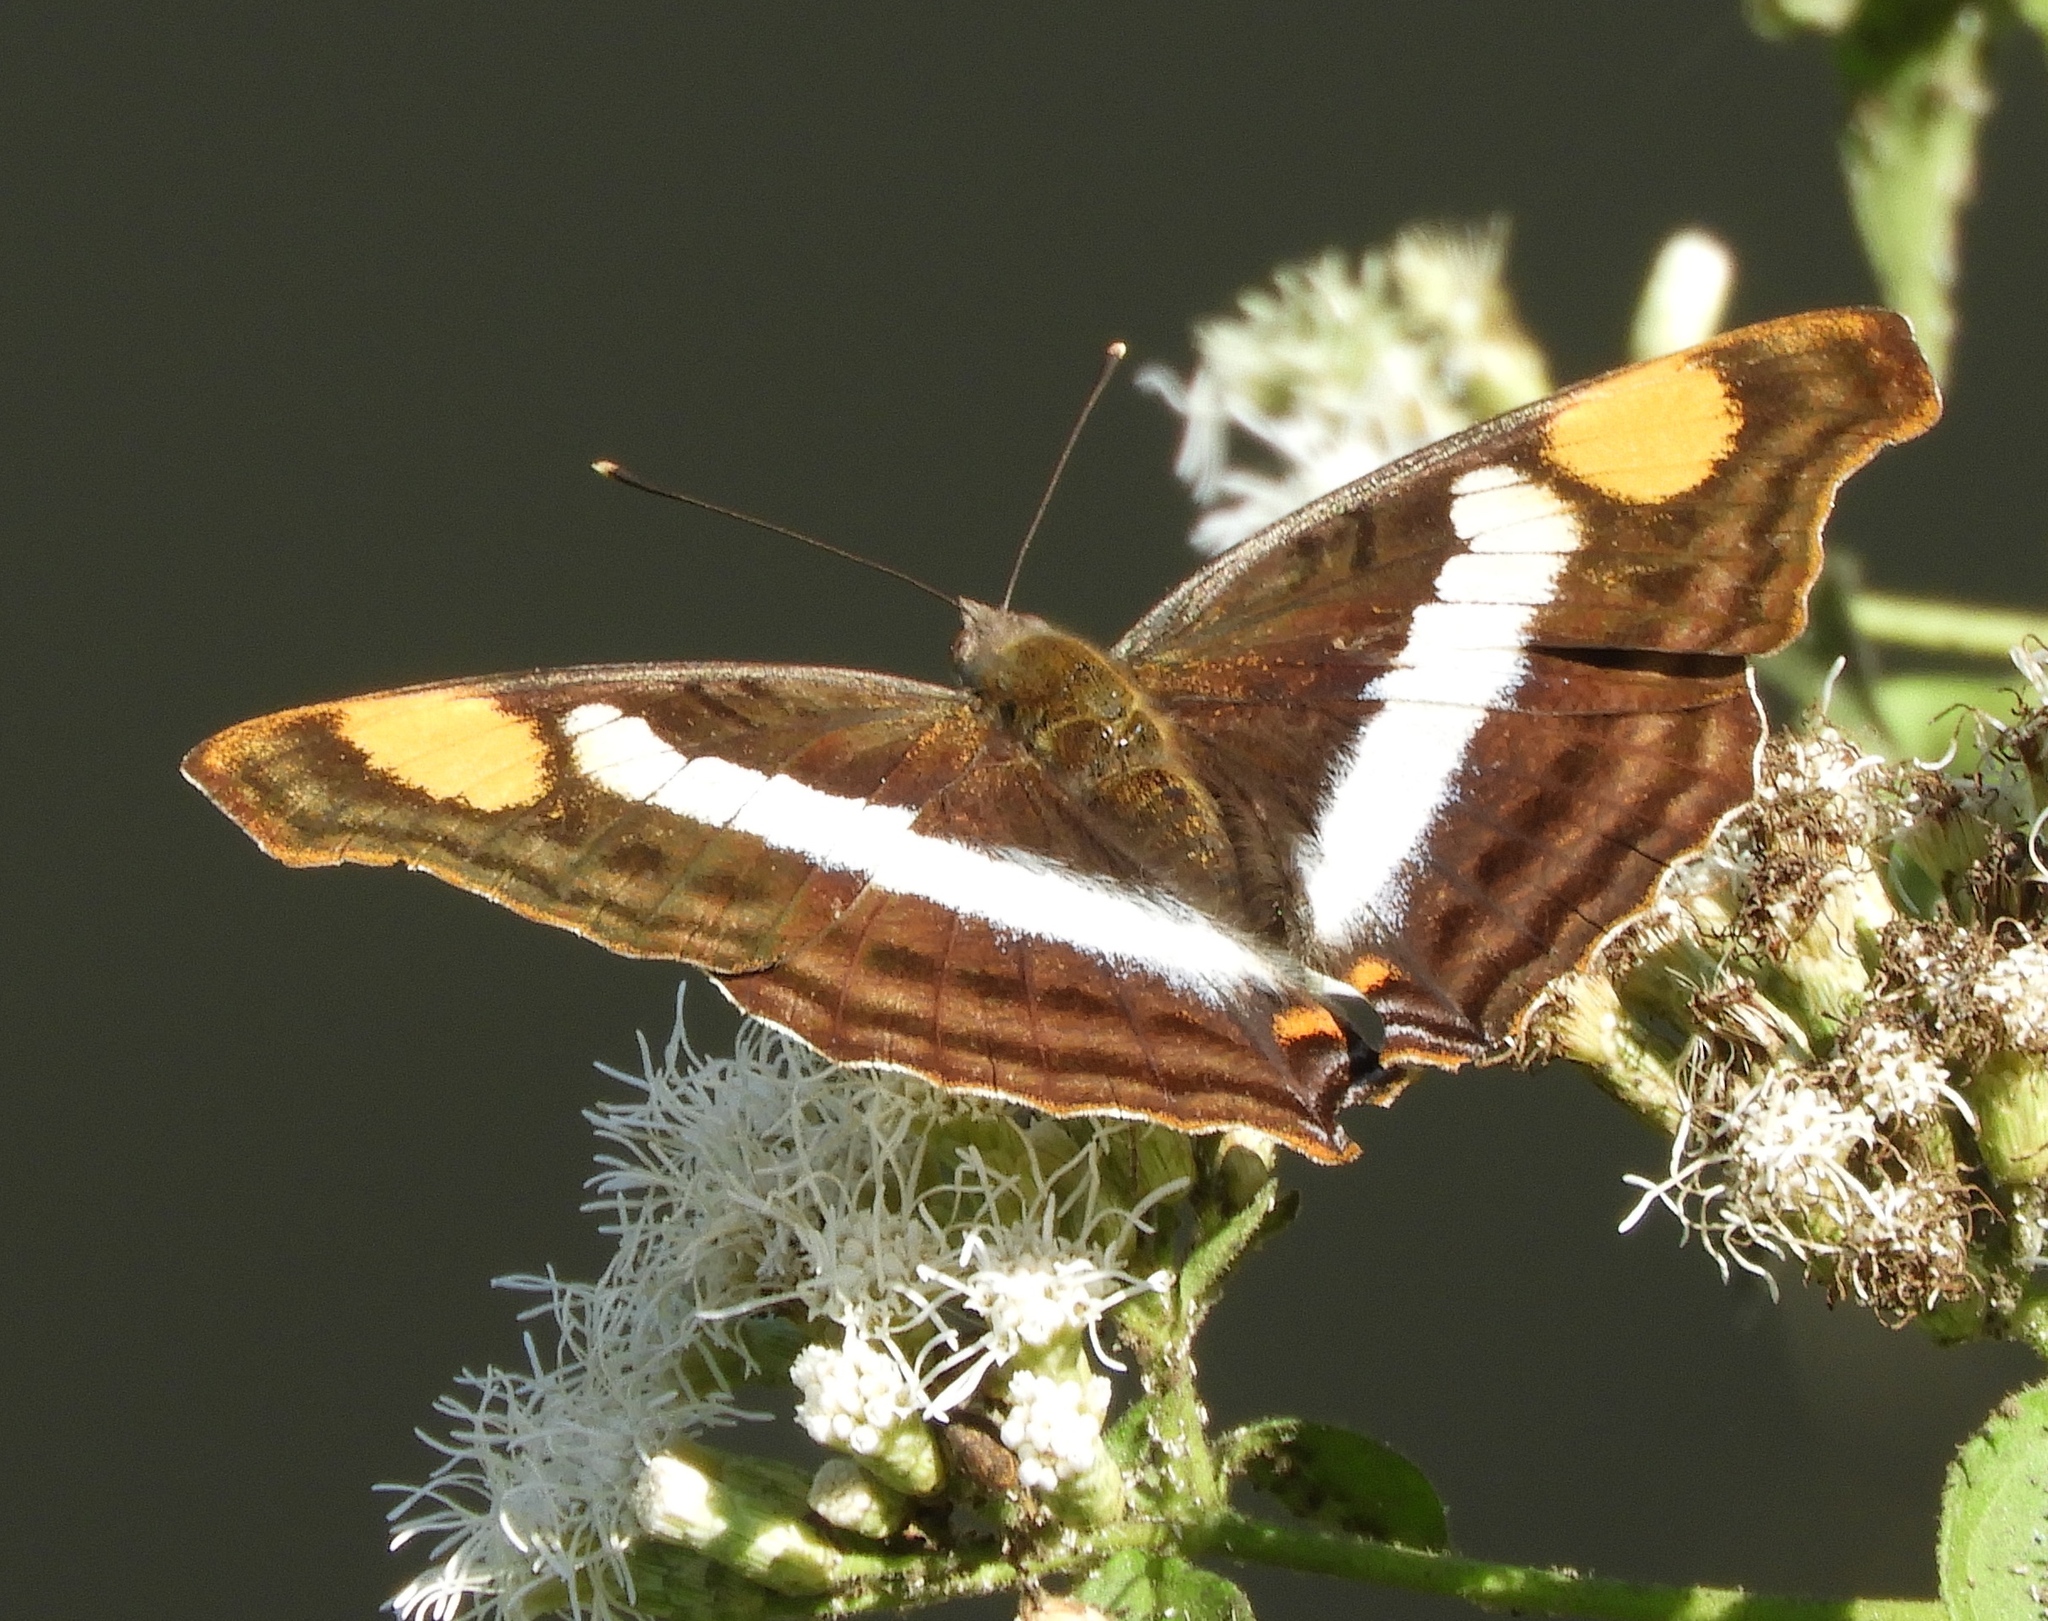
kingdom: Animalia
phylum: Arthropoda
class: Insecta
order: Lepidoptera
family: Nymphalidae
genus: Doxocopa
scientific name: Doxocopa laure
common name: Silver emperor
